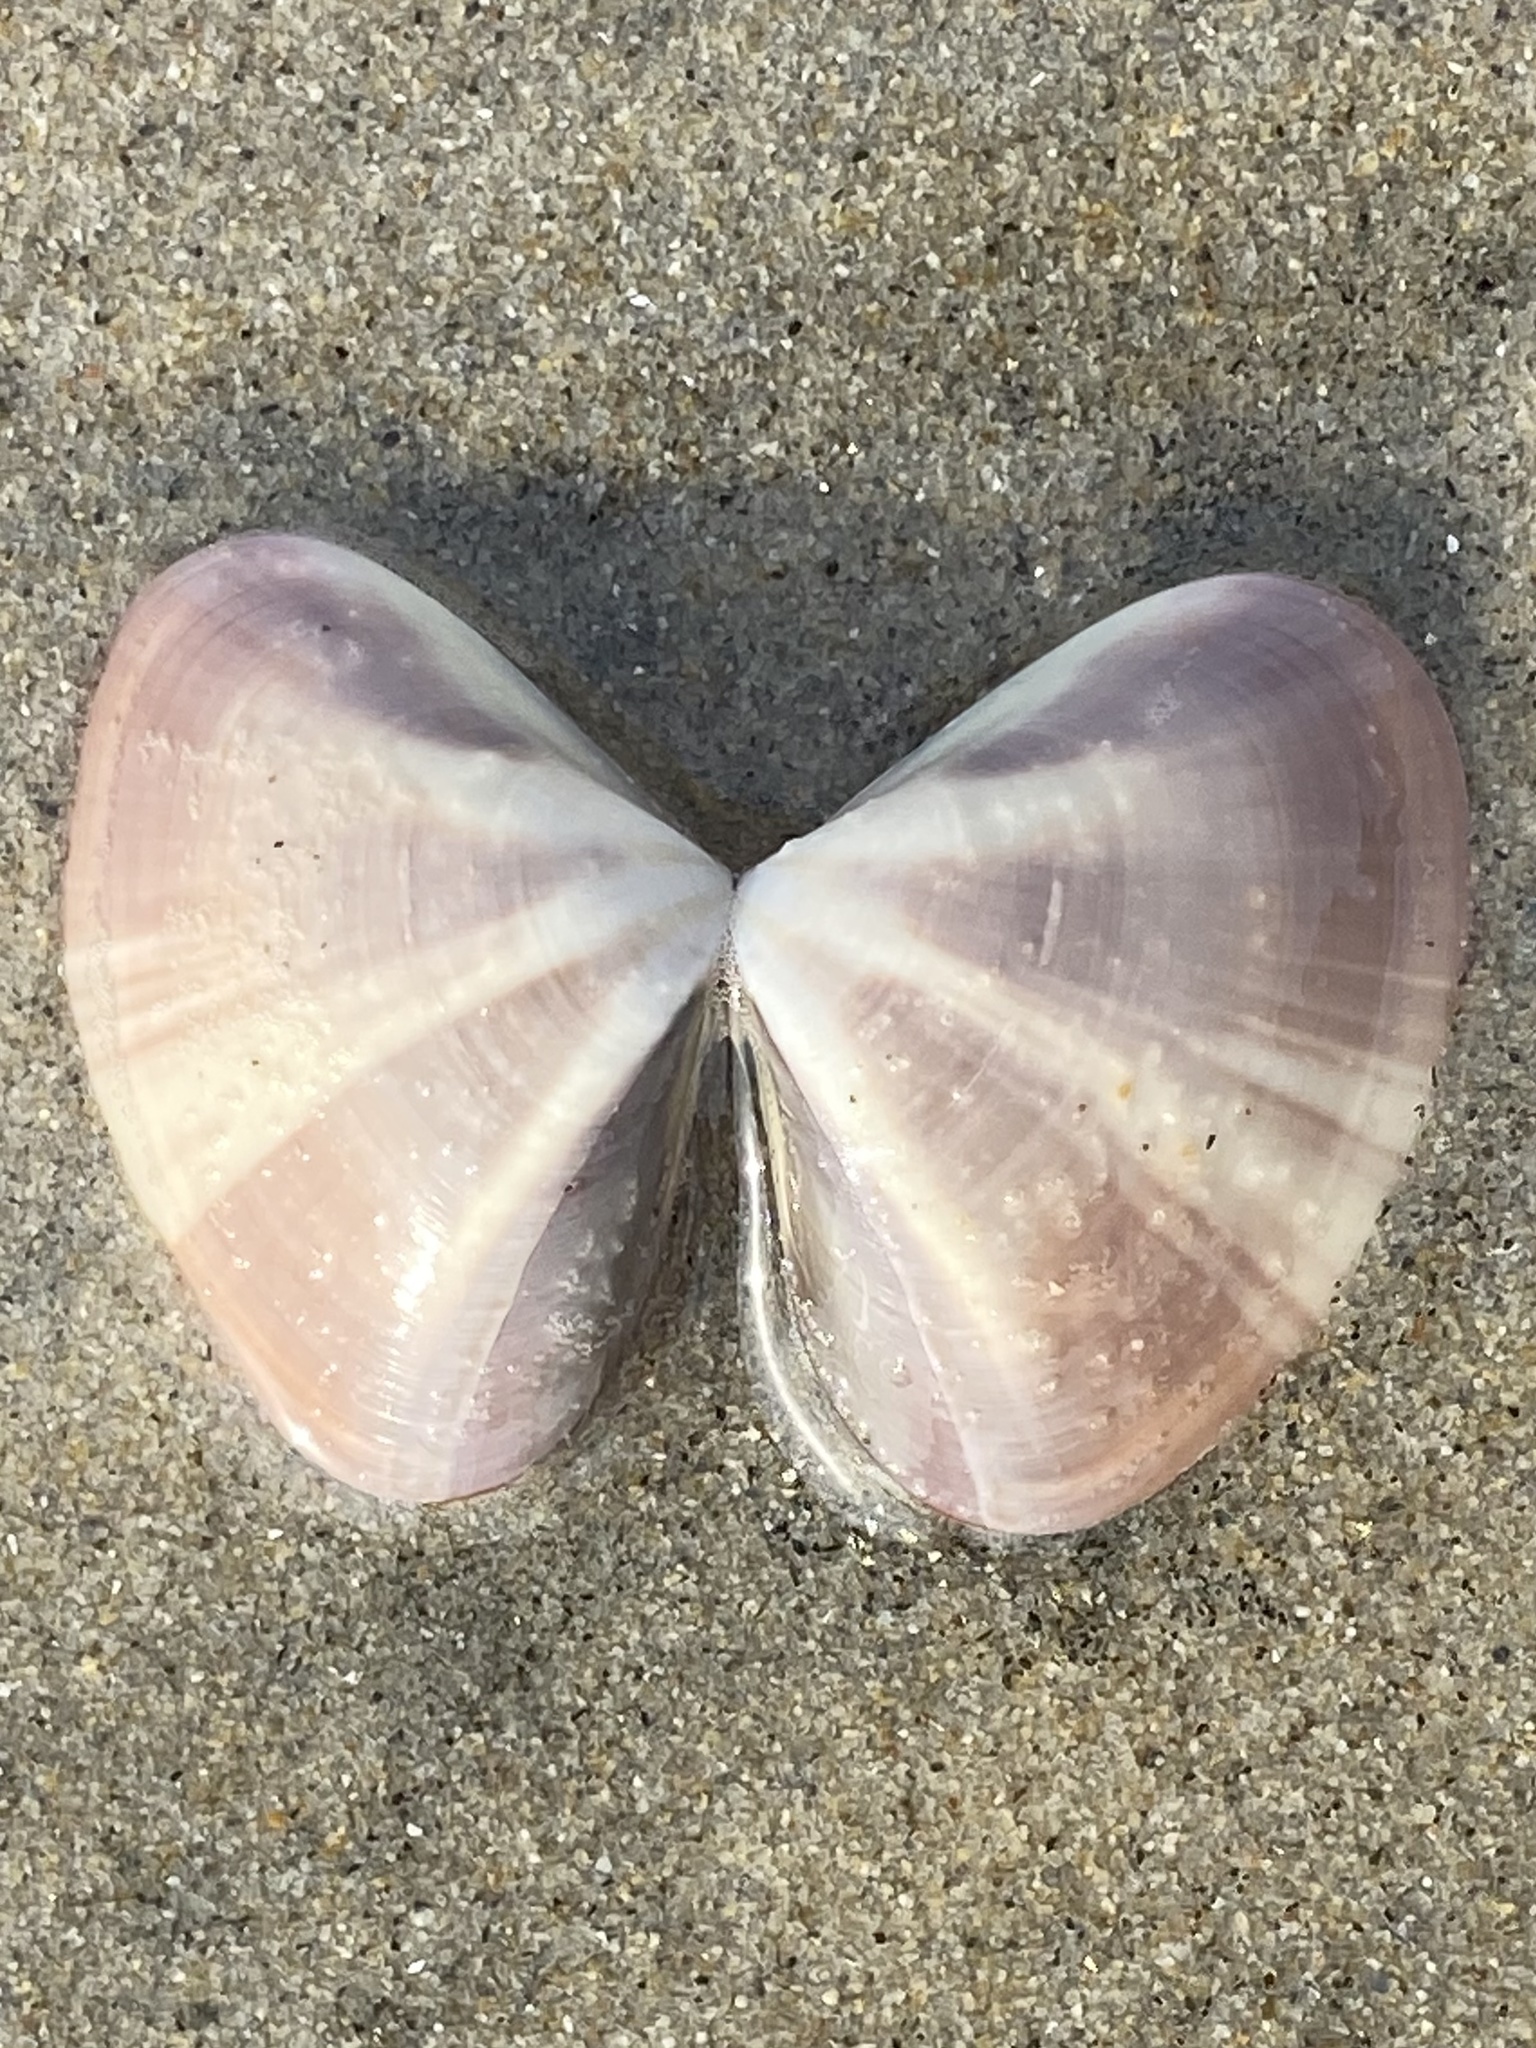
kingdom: Animalia
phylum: Mollusca
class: Bivalvia
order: Venerida
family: Veneridae
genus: Tivela
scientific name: Tivela stultorum
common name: Pismo clam
